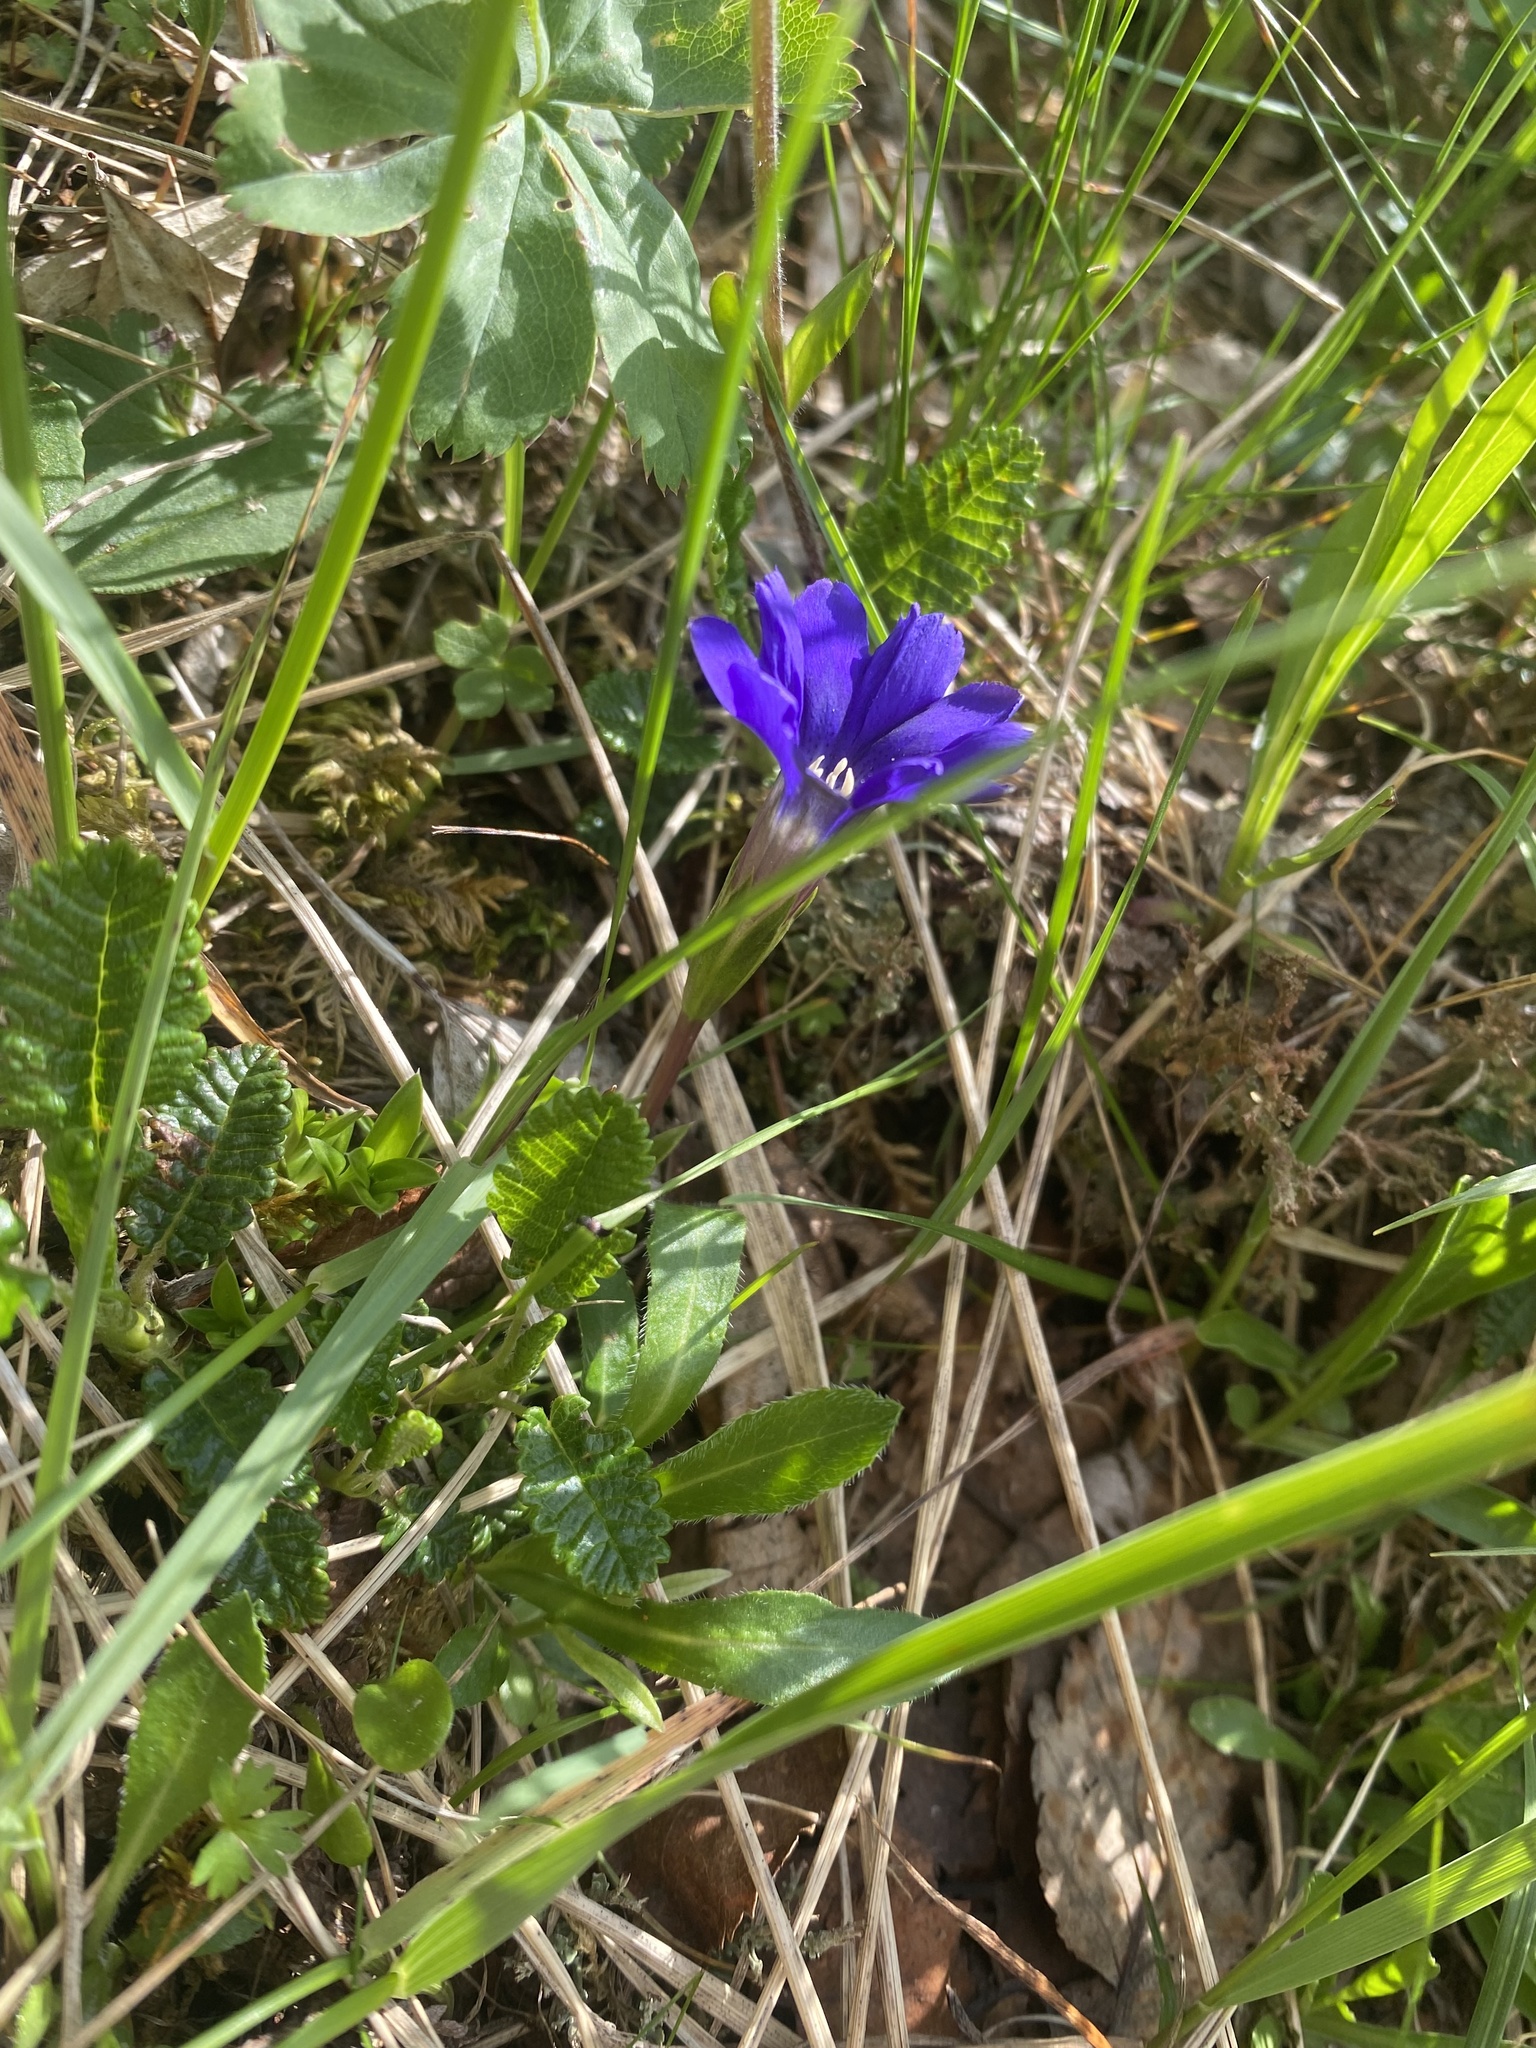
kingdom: Plantae
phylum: Tracheophyta
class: Magnoliopsida
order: Gentianales
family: Gentianaceae
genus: Gentiana
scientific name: Gentiana dshimilensis
